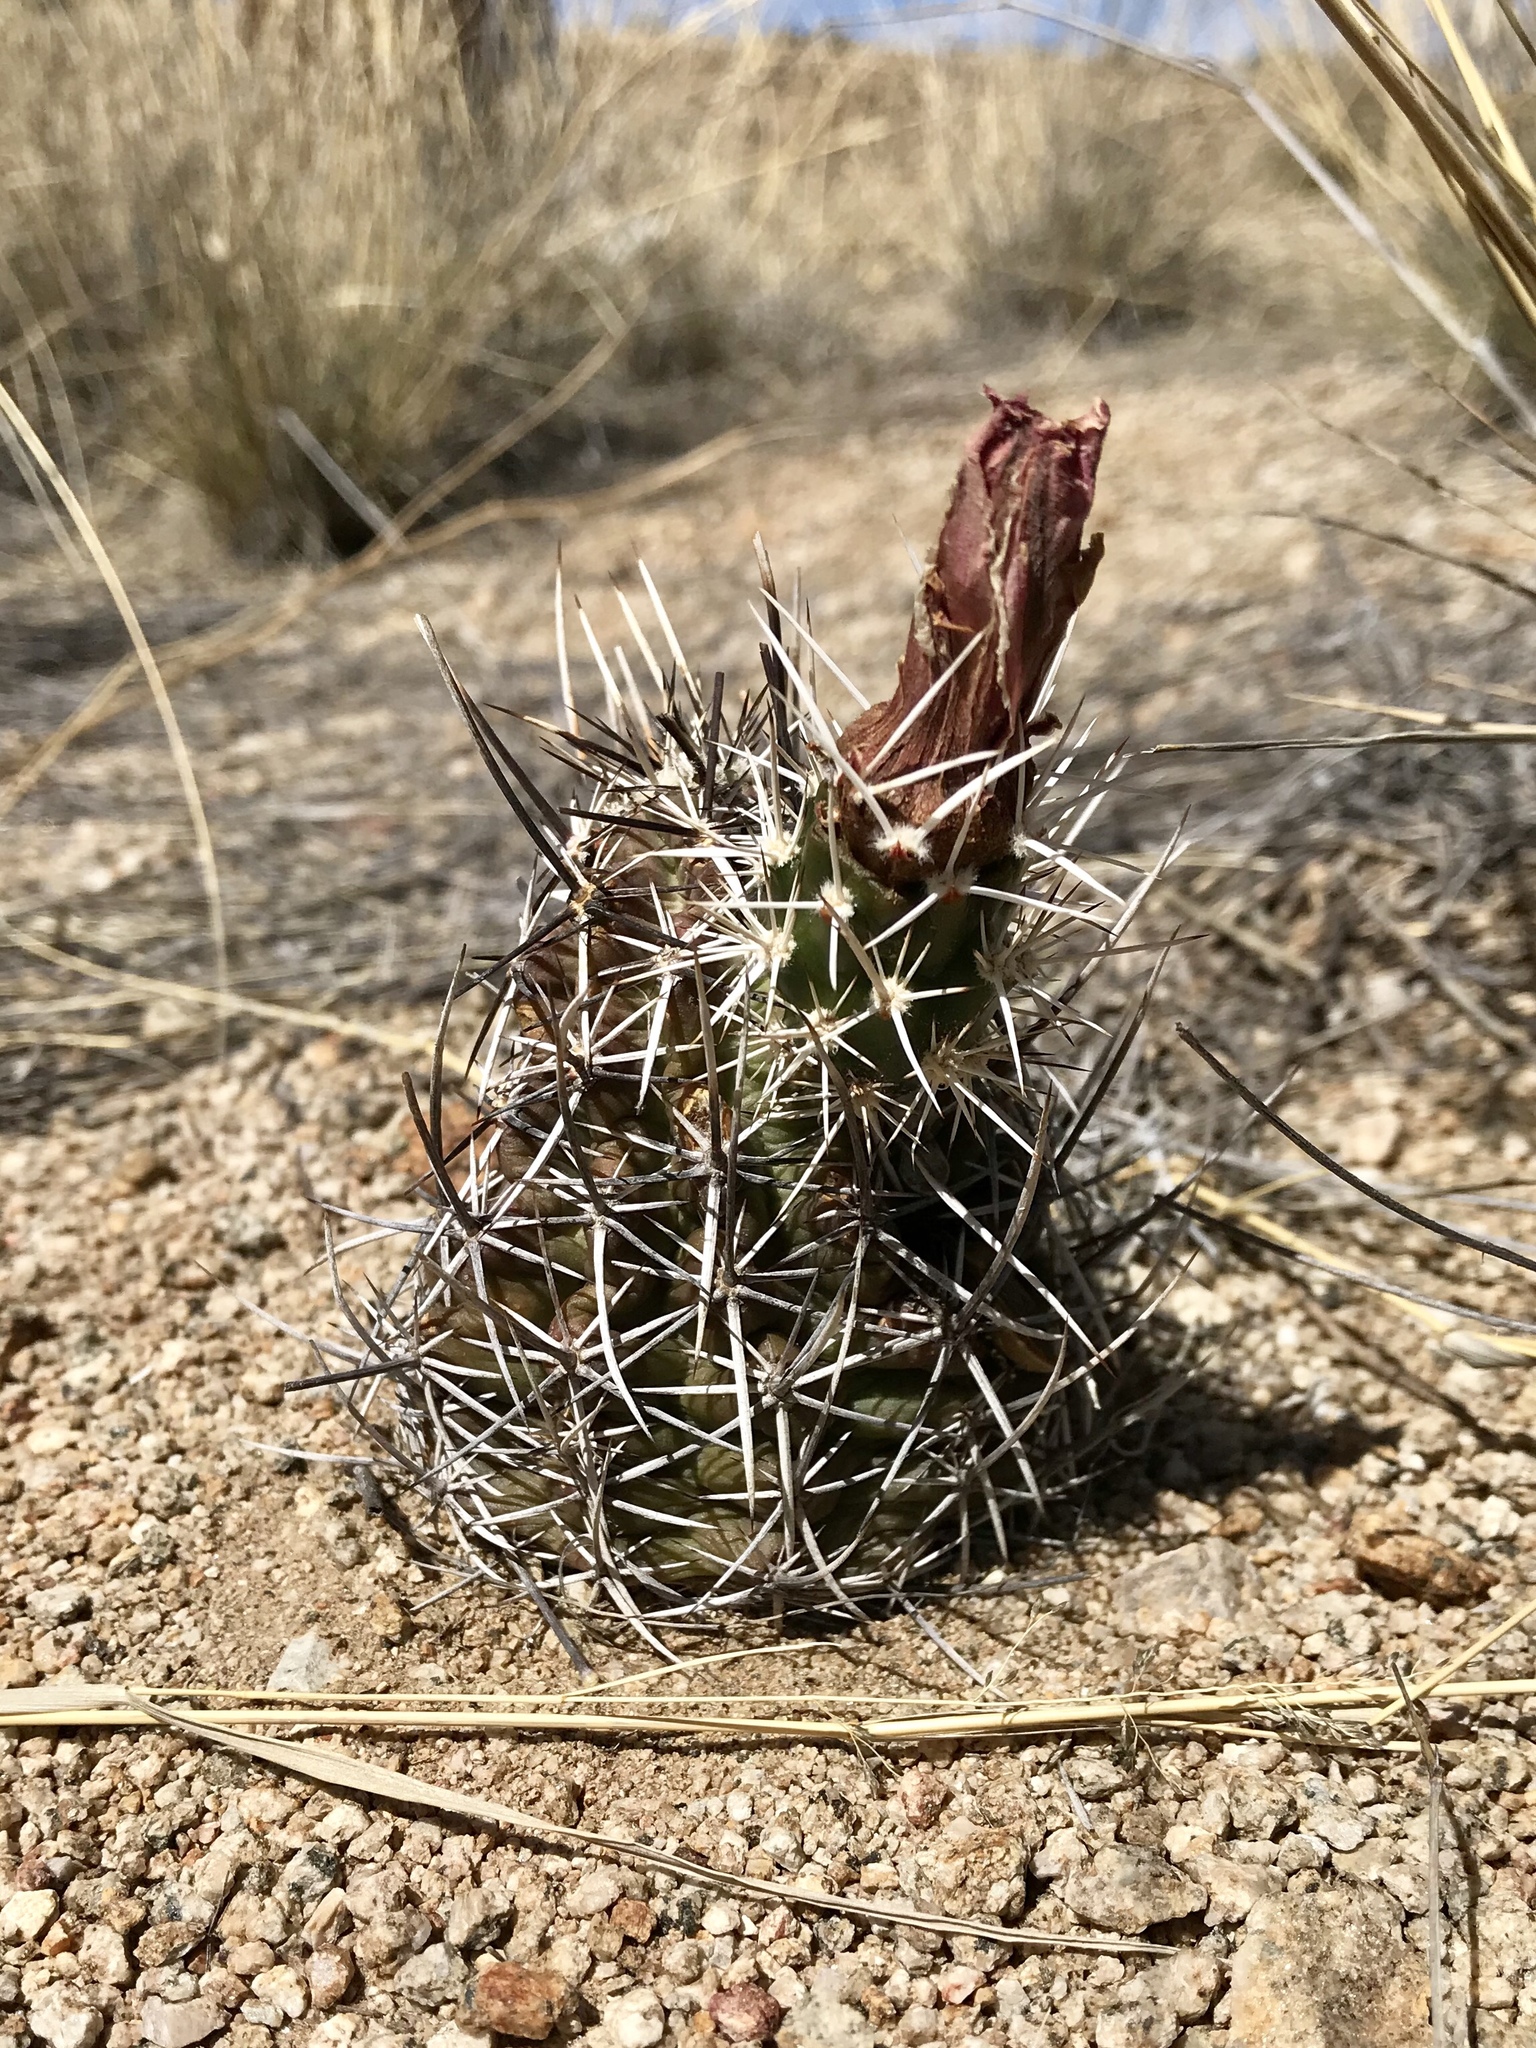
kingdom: Plantae
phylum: Tracheophyta
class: Magnoliopsida
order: Caryophyllales
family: Cactaceae
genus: Echinocereus
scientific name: Echinocereus fendleri
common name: Fendler's hedgehog cactus
